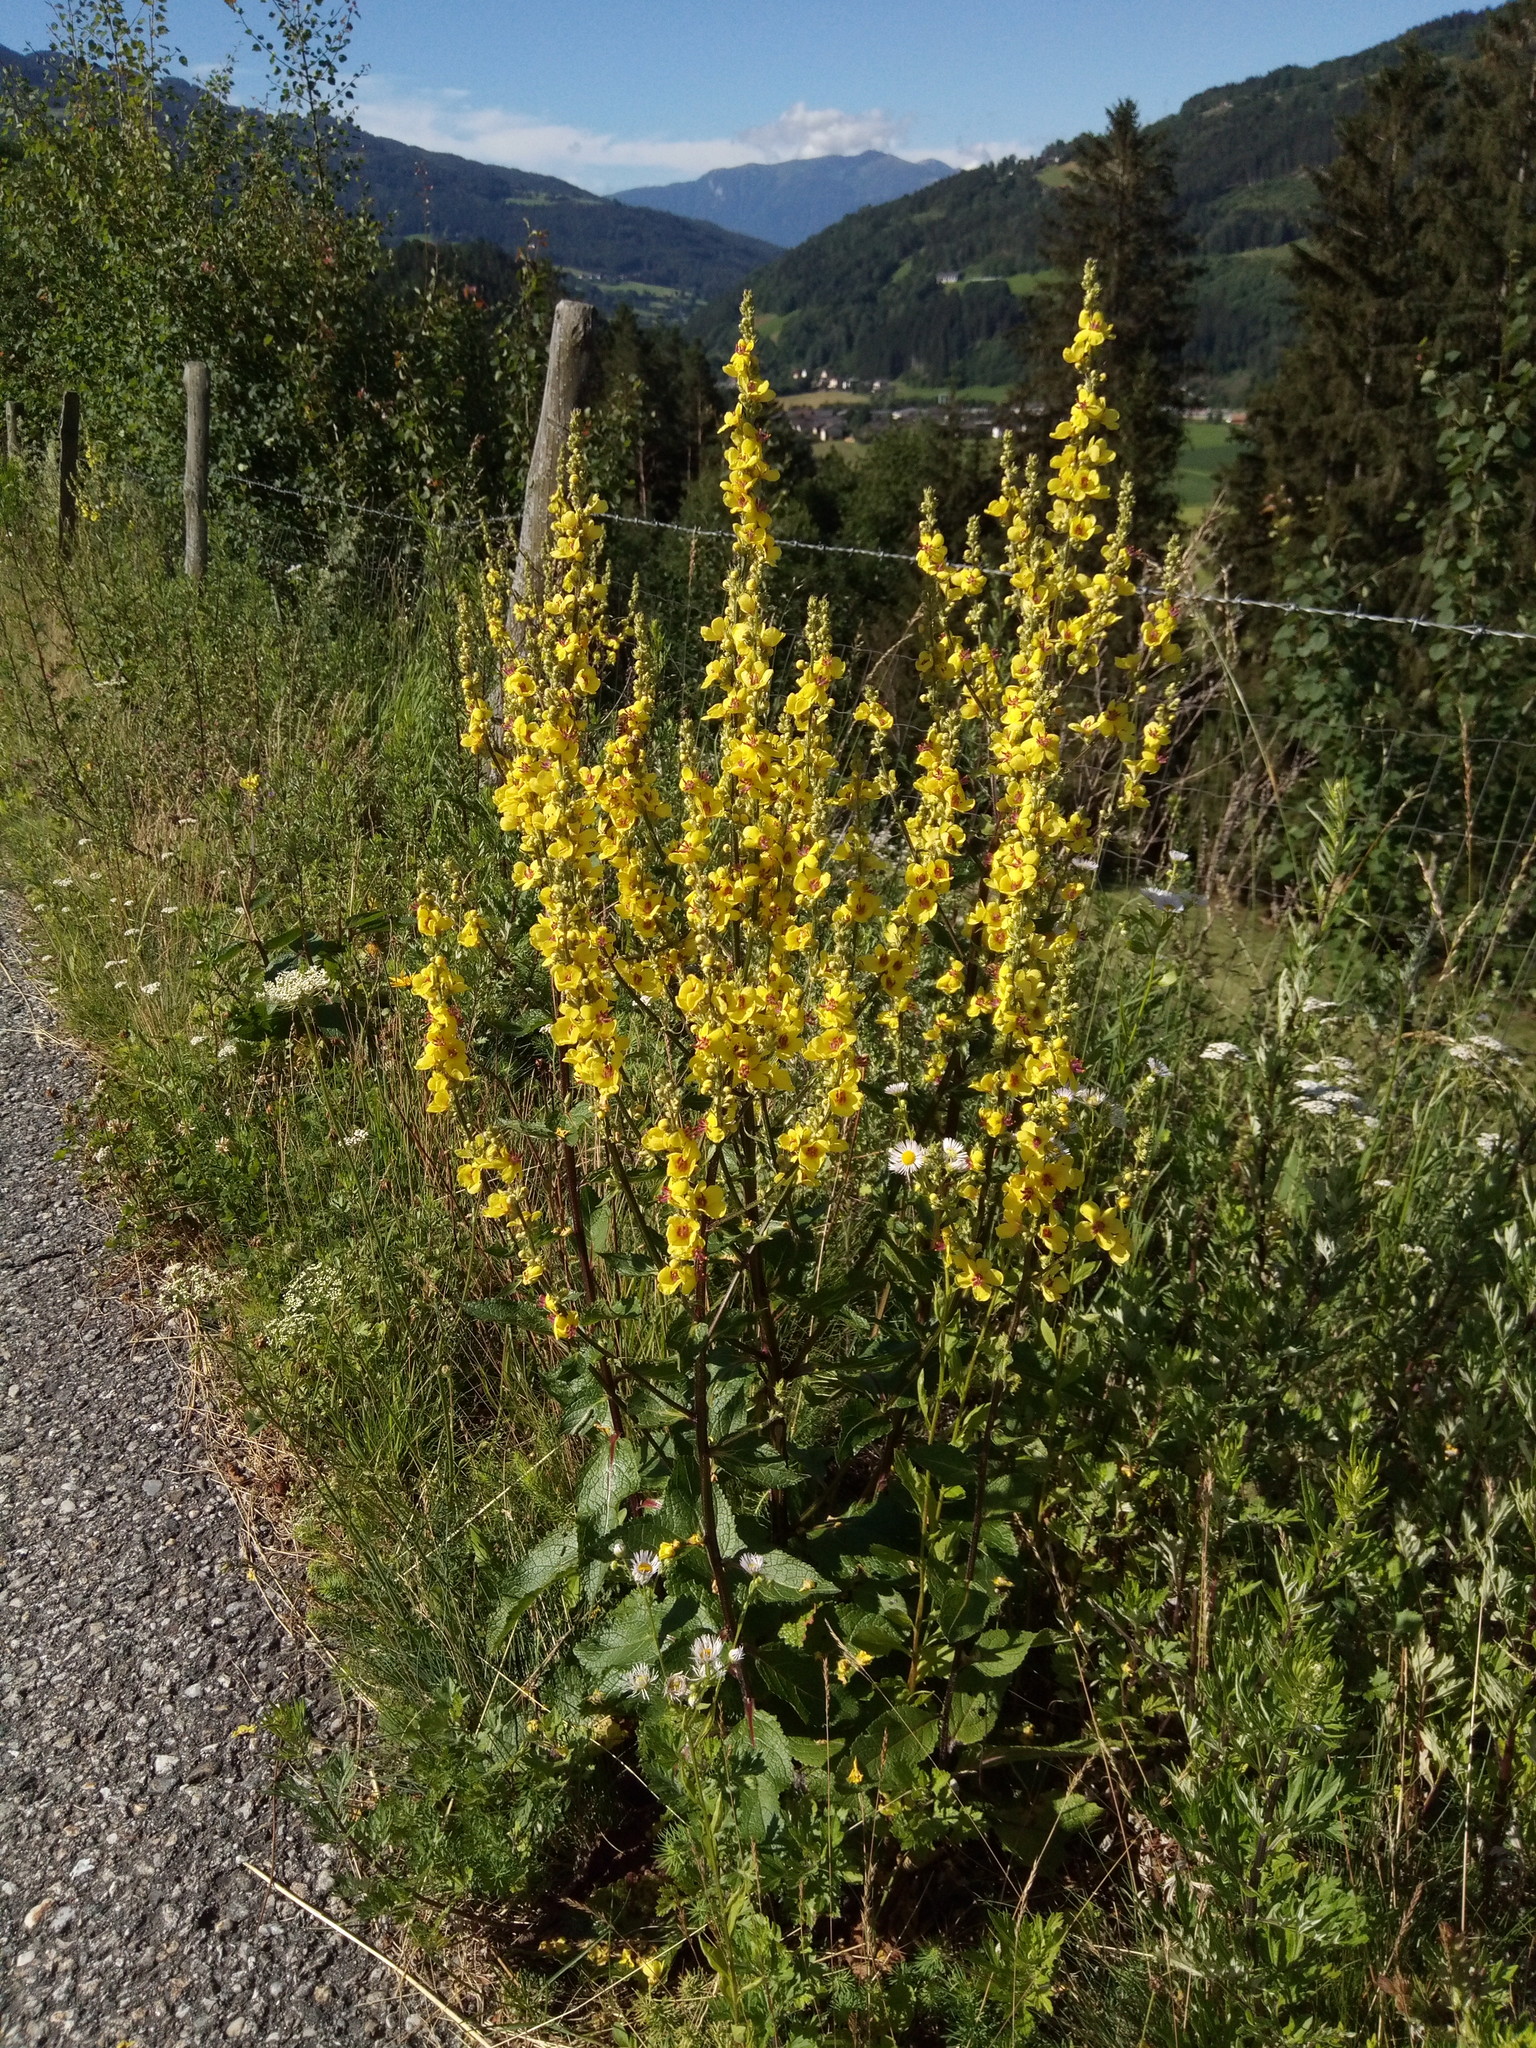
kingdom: Plantae
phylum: Tracheophyta
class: Magnoliopsida
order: Lamiales
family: Scrophulariaceae
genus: Verbascum
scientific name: Verbascum chaixii
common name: Nettle-leaved mullein
